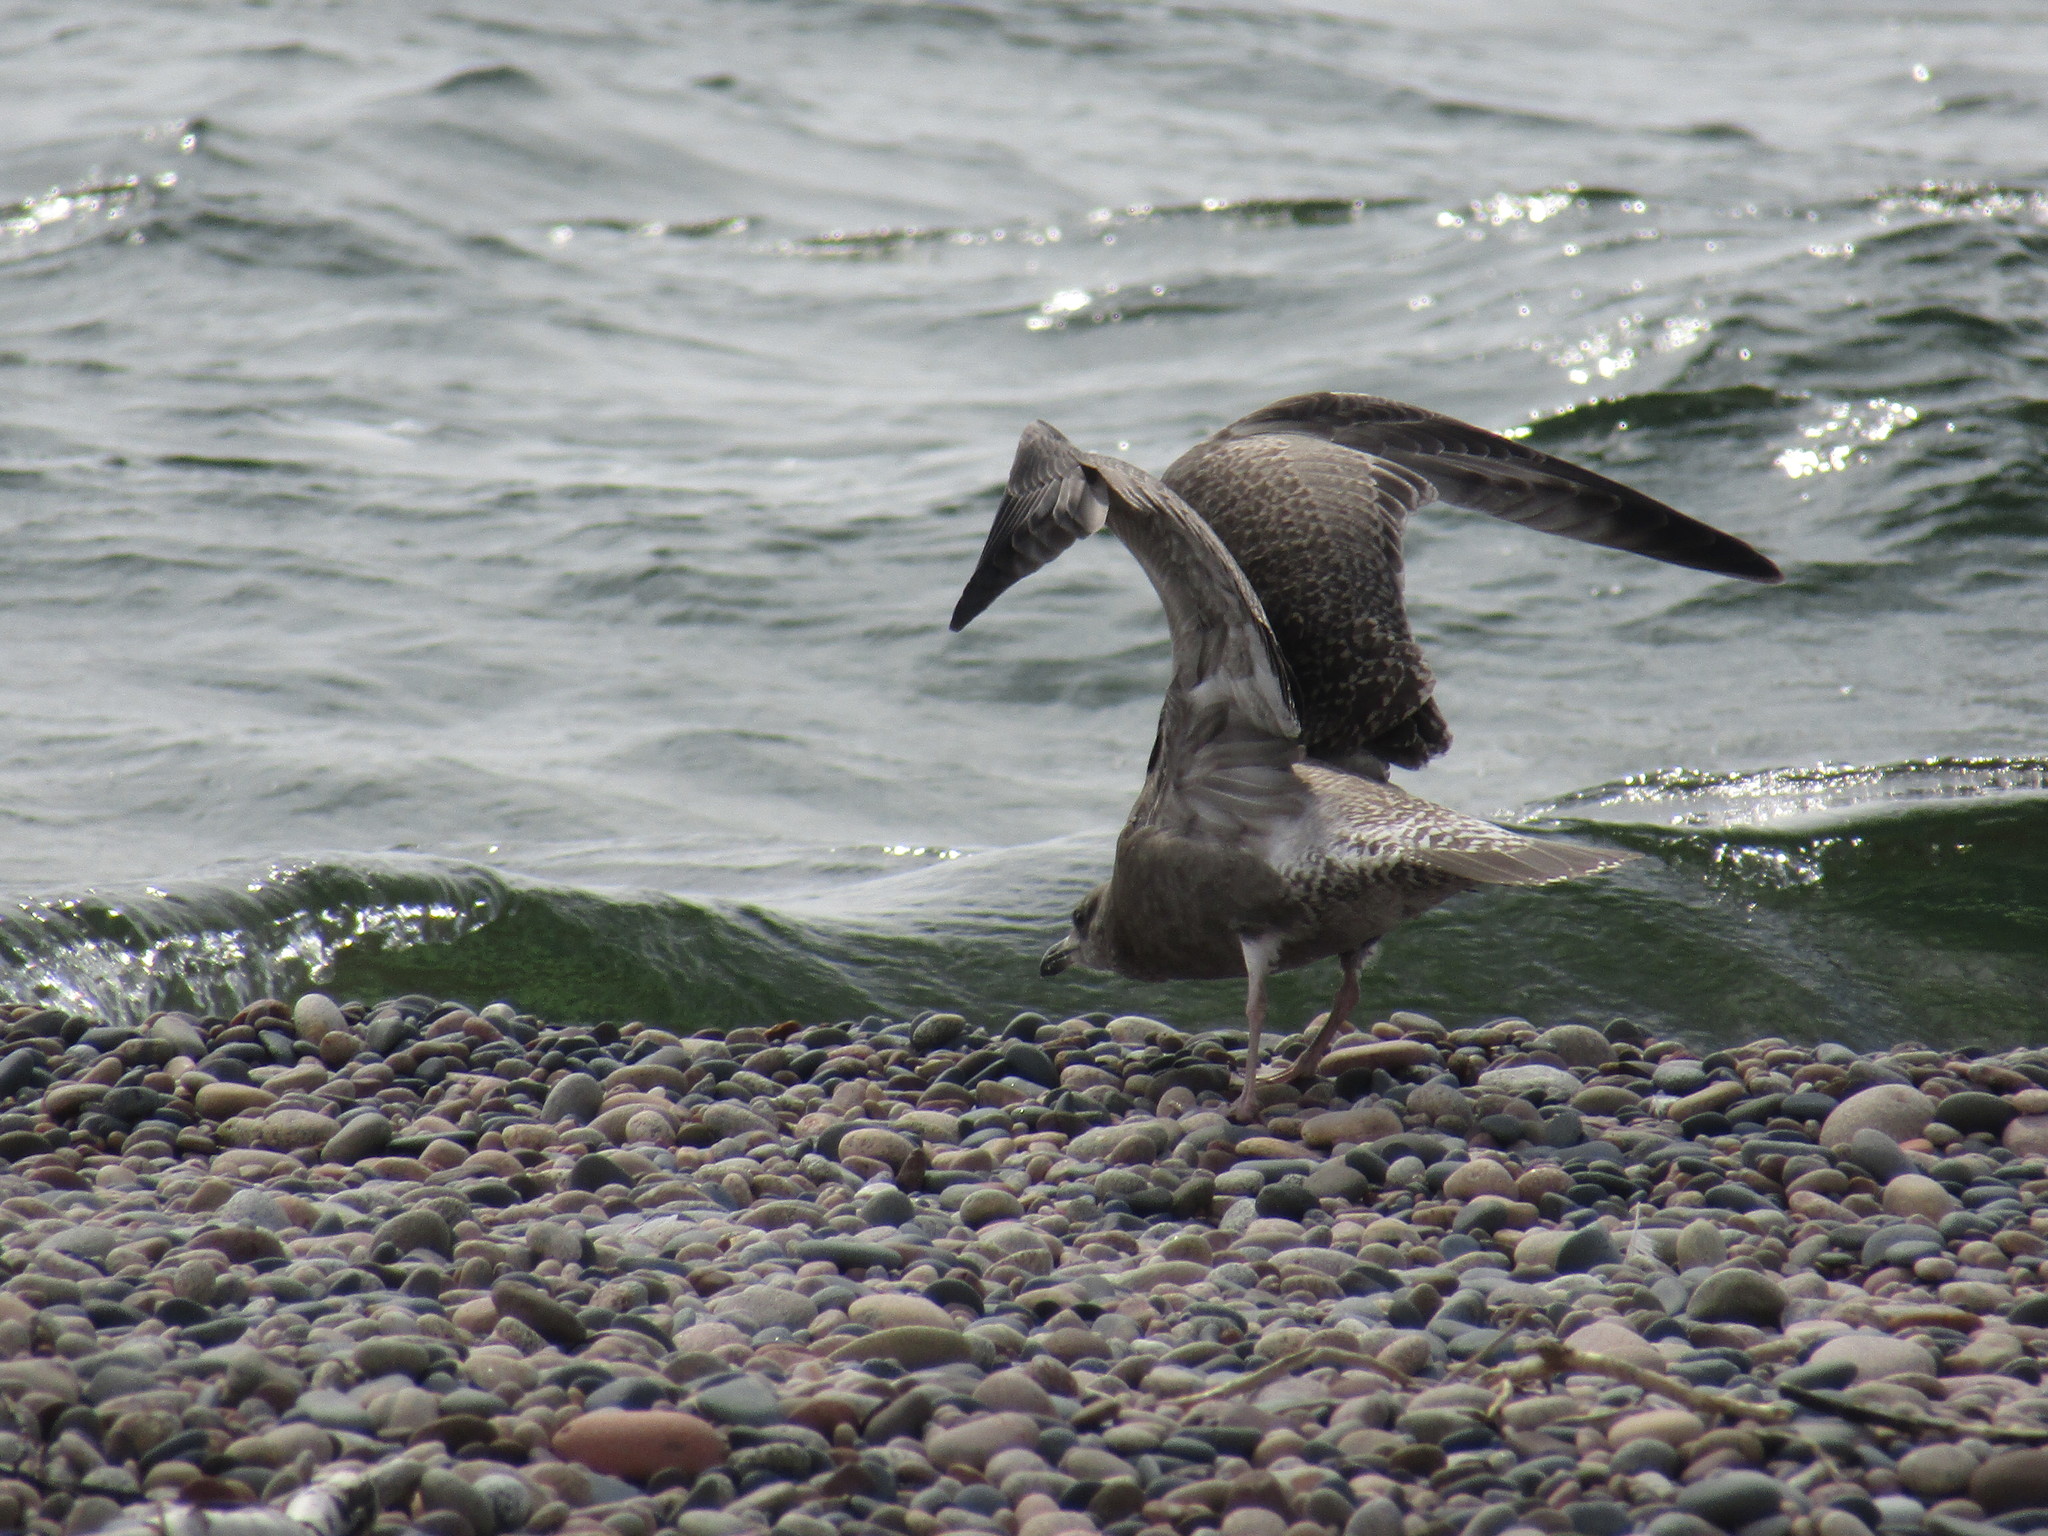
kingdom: Animalia
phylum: Chordata
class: Aves
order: Charadriiformes
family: Laridae
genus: Larus
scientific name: Larus argentatus
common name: Herring gull
